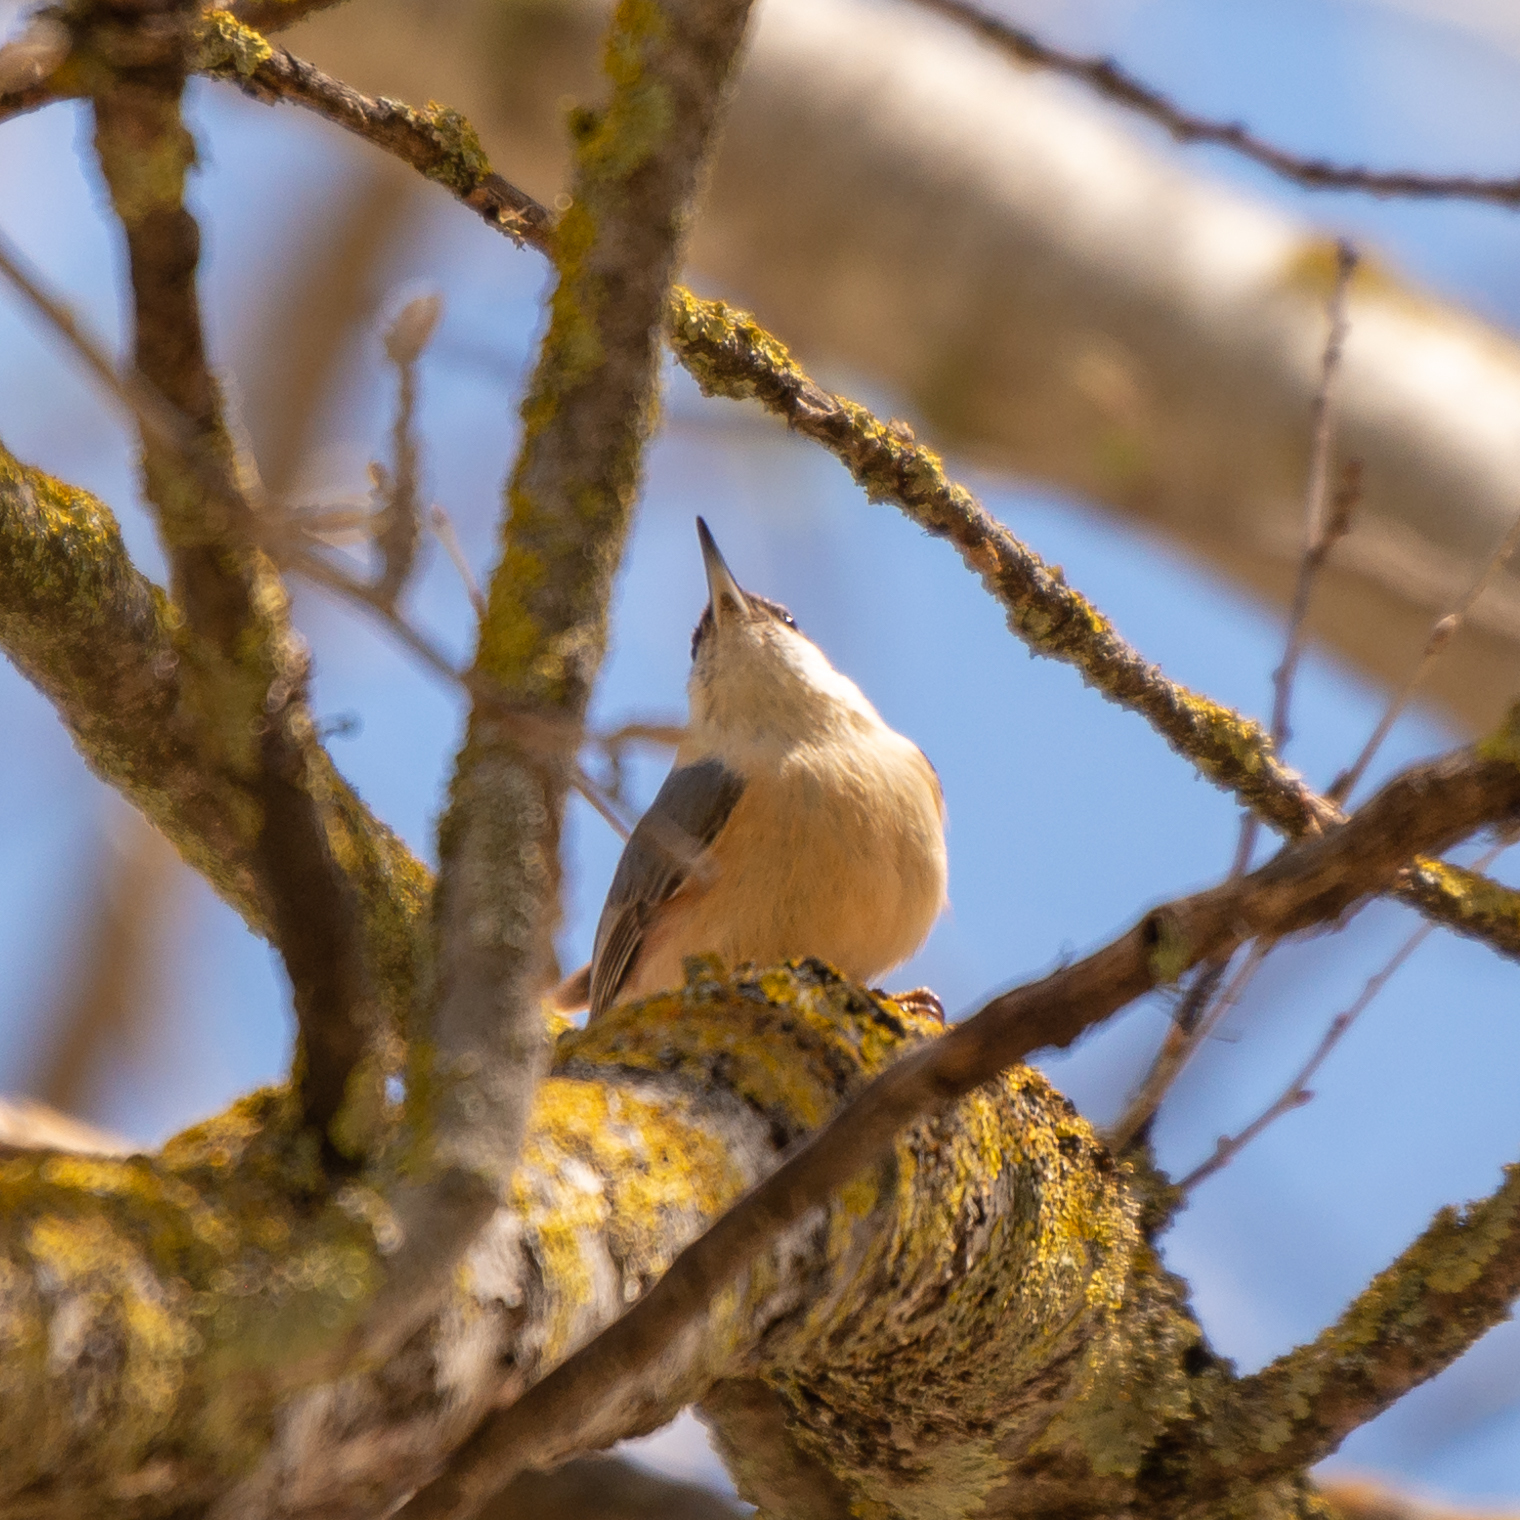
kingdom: Animalia
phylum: Chordata
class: Aves
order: Passeriformes
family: Sittidae
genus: Sitta
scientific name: Sitta europaea
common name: Eurasian nuthatch
